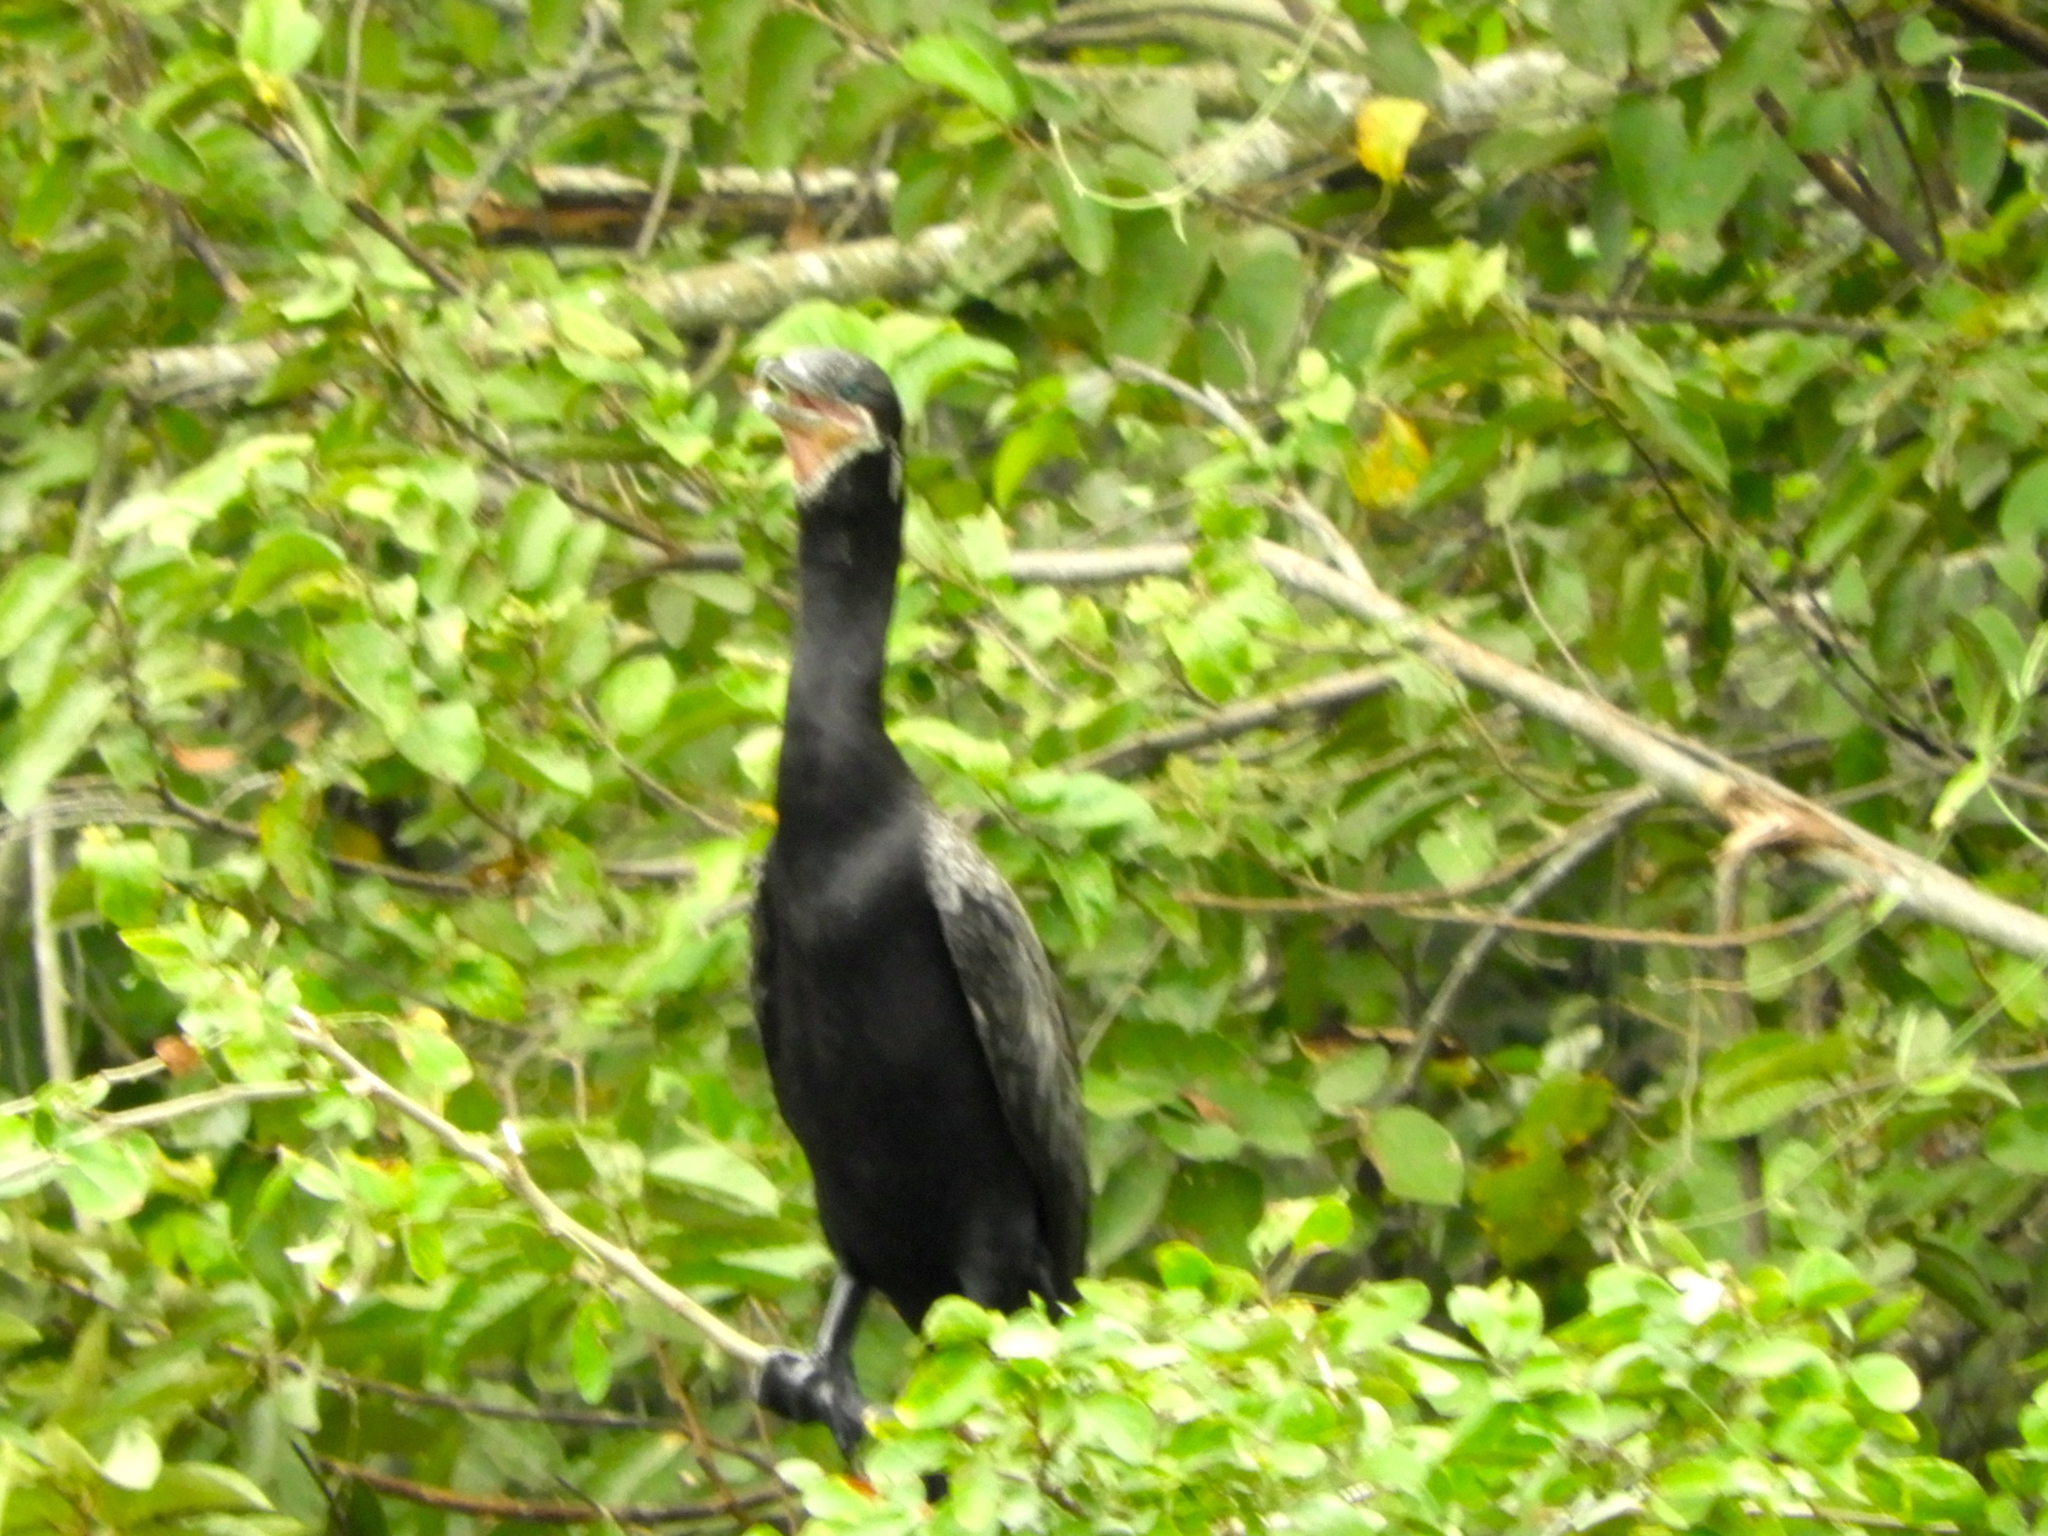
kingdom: Animalia
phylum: Chordata
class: Aves
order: Suliformes
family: Phalacrocoracidae
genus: Phalacrocorax
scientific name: Phalacrocorax brasilianus
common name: Neotropic cormorant
